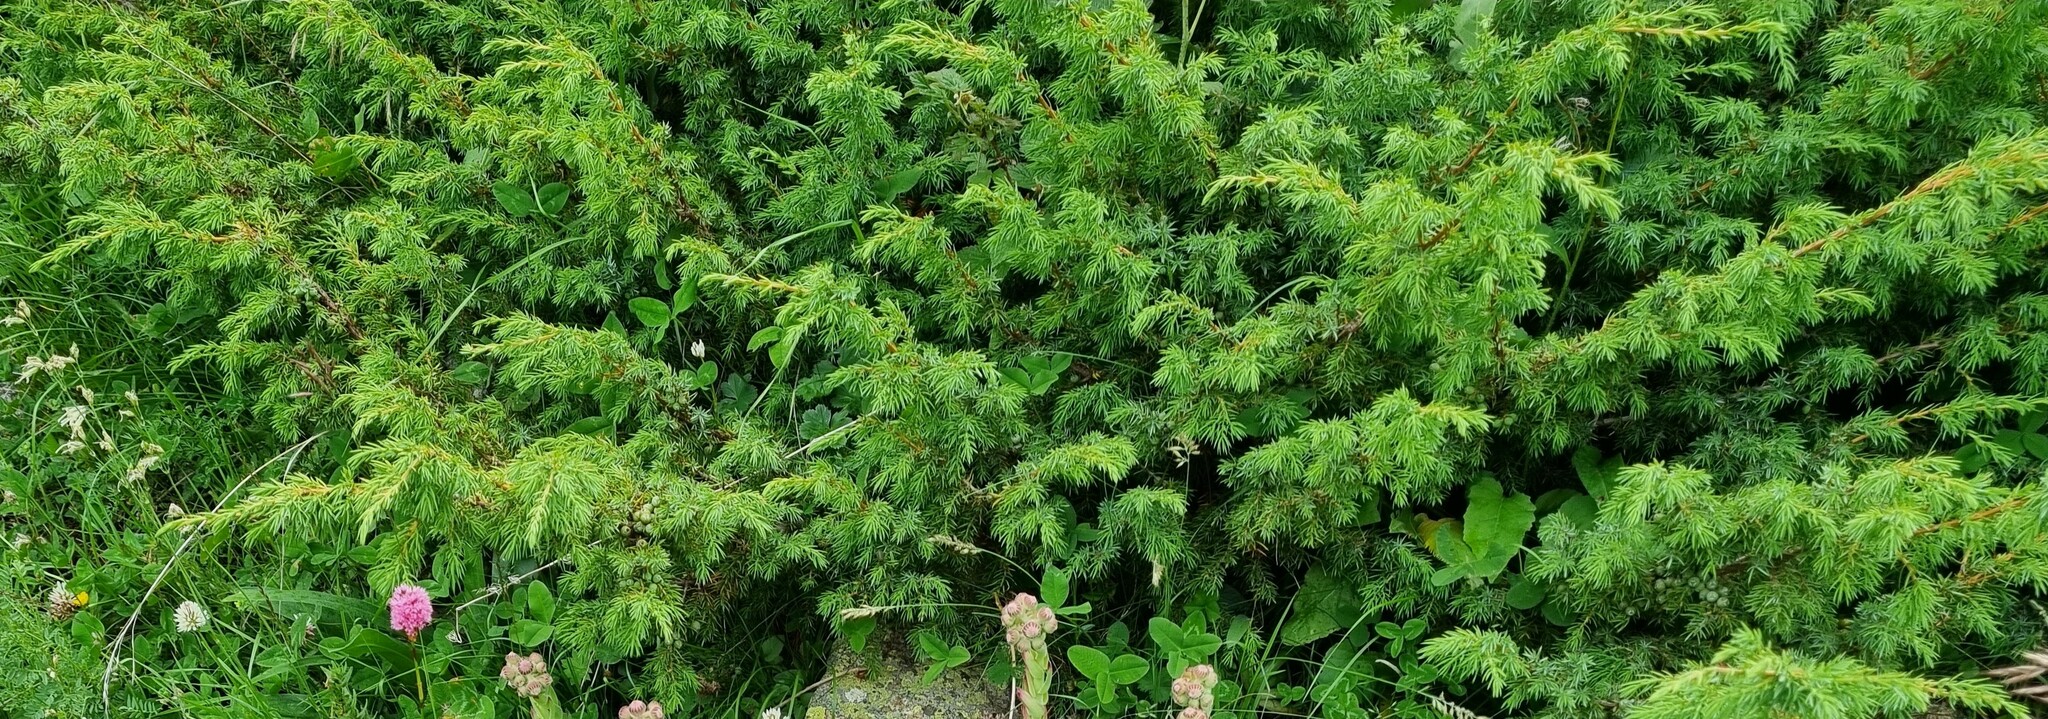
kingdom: Plantae
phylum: Tracheophyta
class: Pinopsida
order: Pinales
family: Cupressaceae
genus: Juniperus
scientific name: Juniperus communis
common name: Common juniper
